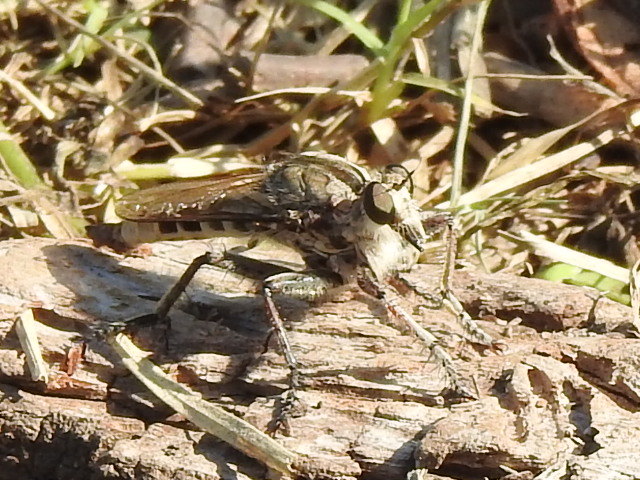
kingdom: Animalia
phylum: Arthropoda
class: Insecta
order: Diptera
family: Asilidae
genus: Triorla
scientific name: Triorla interrupta
